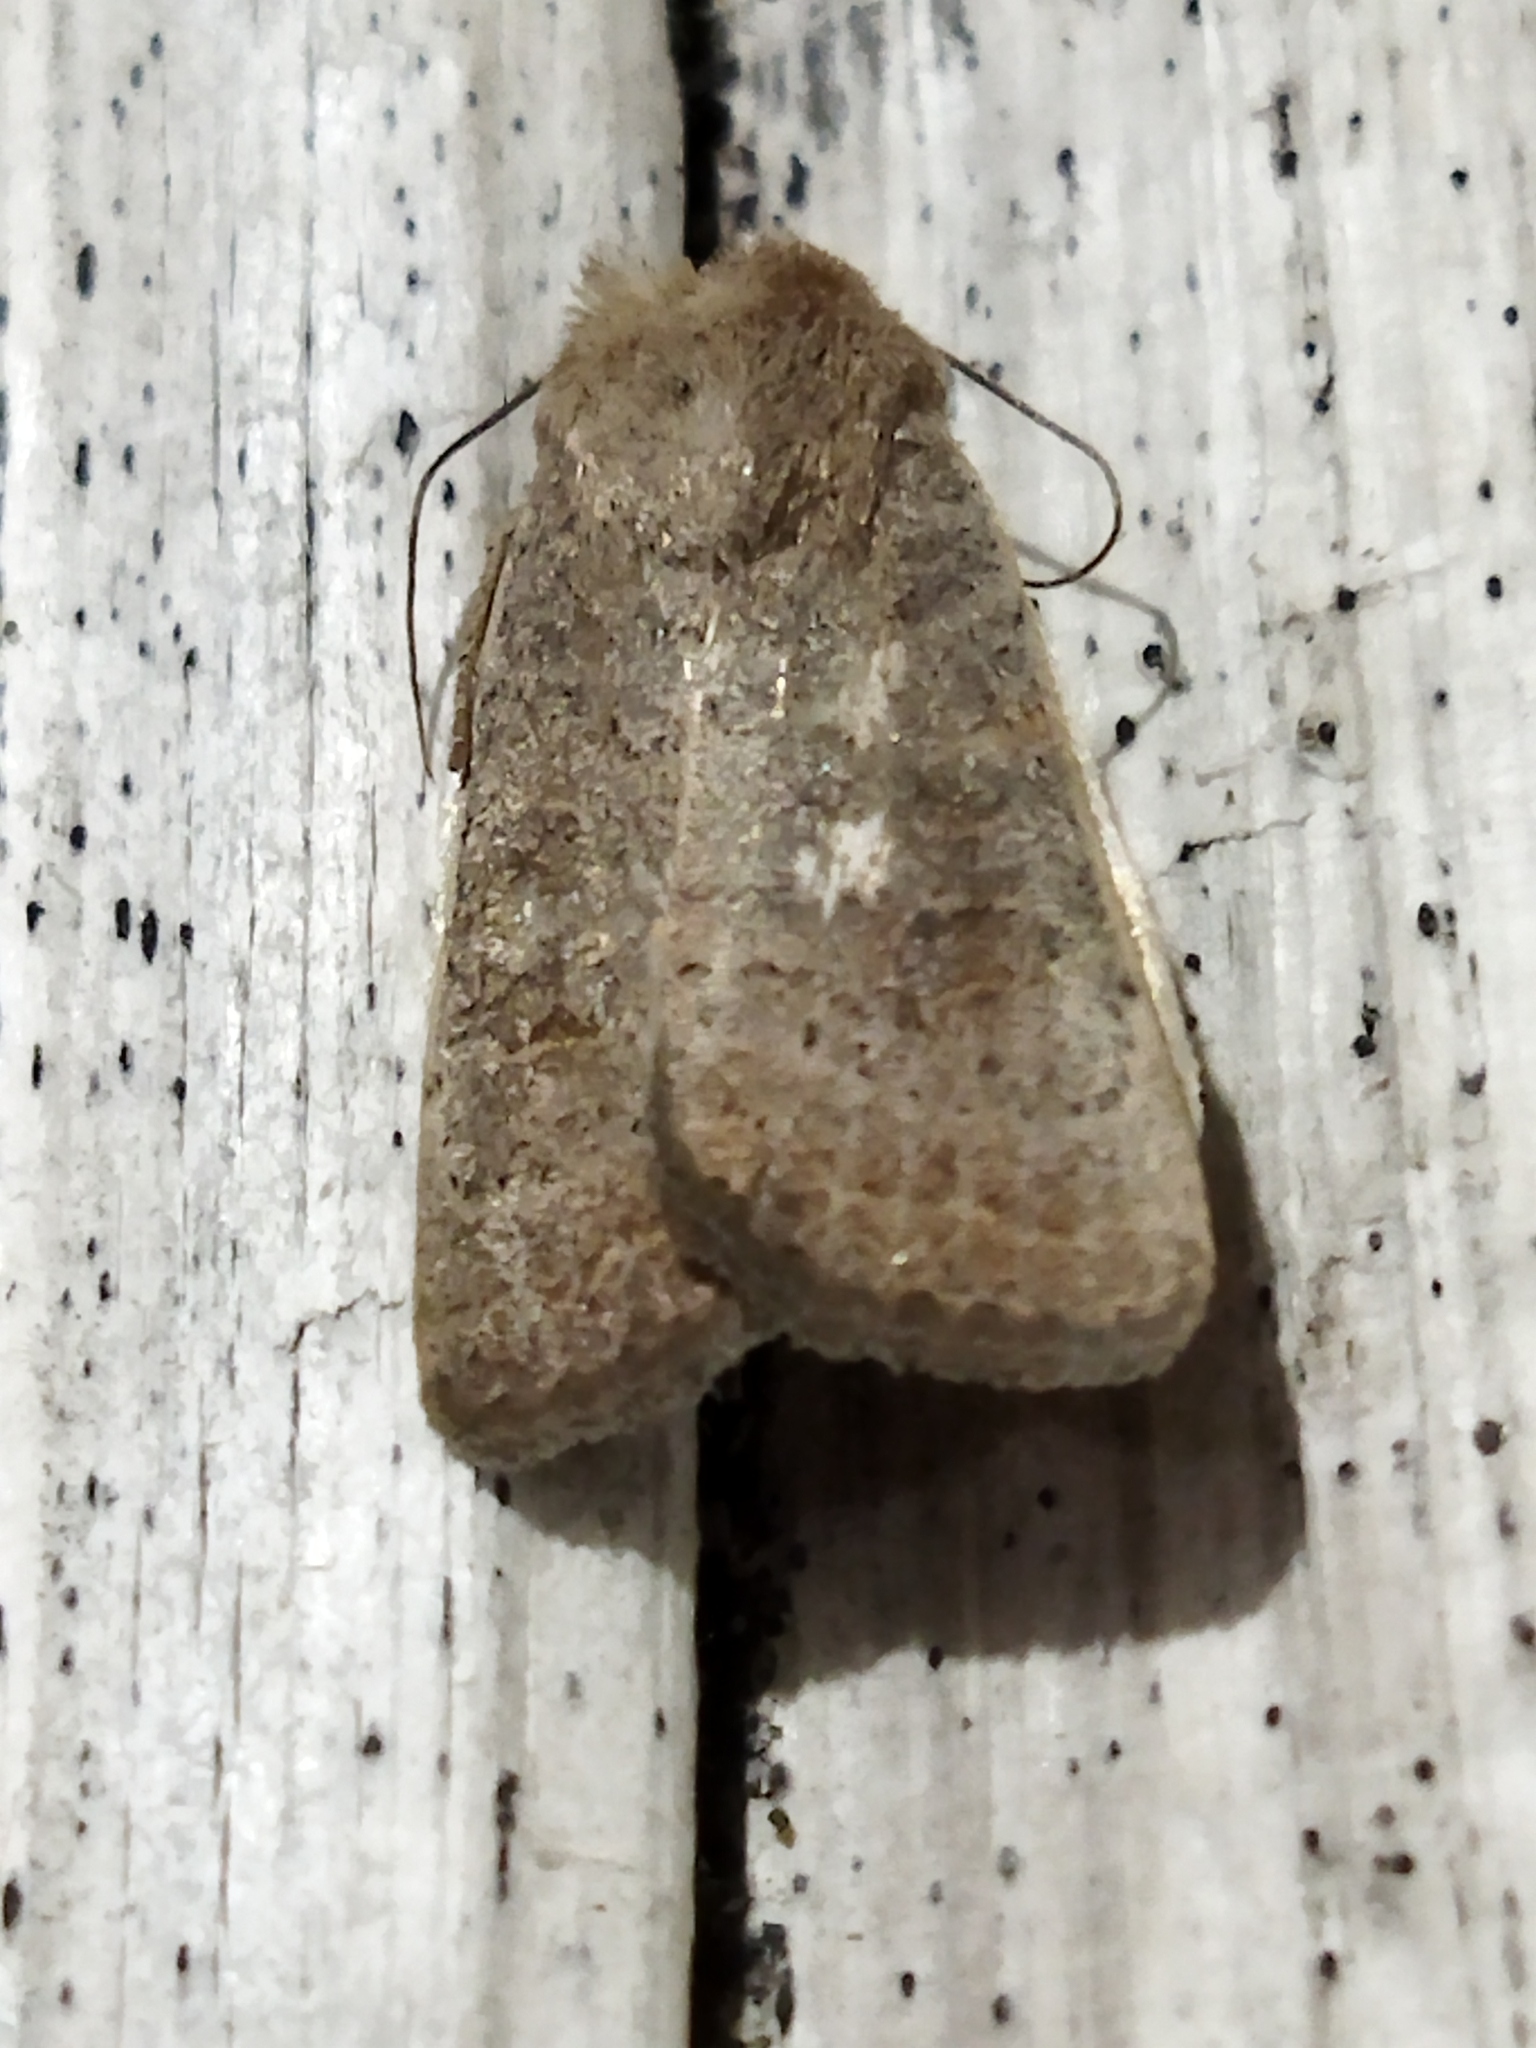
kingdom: Animalia
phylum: Arthropoda
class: Insecta
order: Lepidoptera
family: Noctuidae
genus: Hoplodrina
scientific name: Hoplodrina ambigua
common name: Vine's rustic
